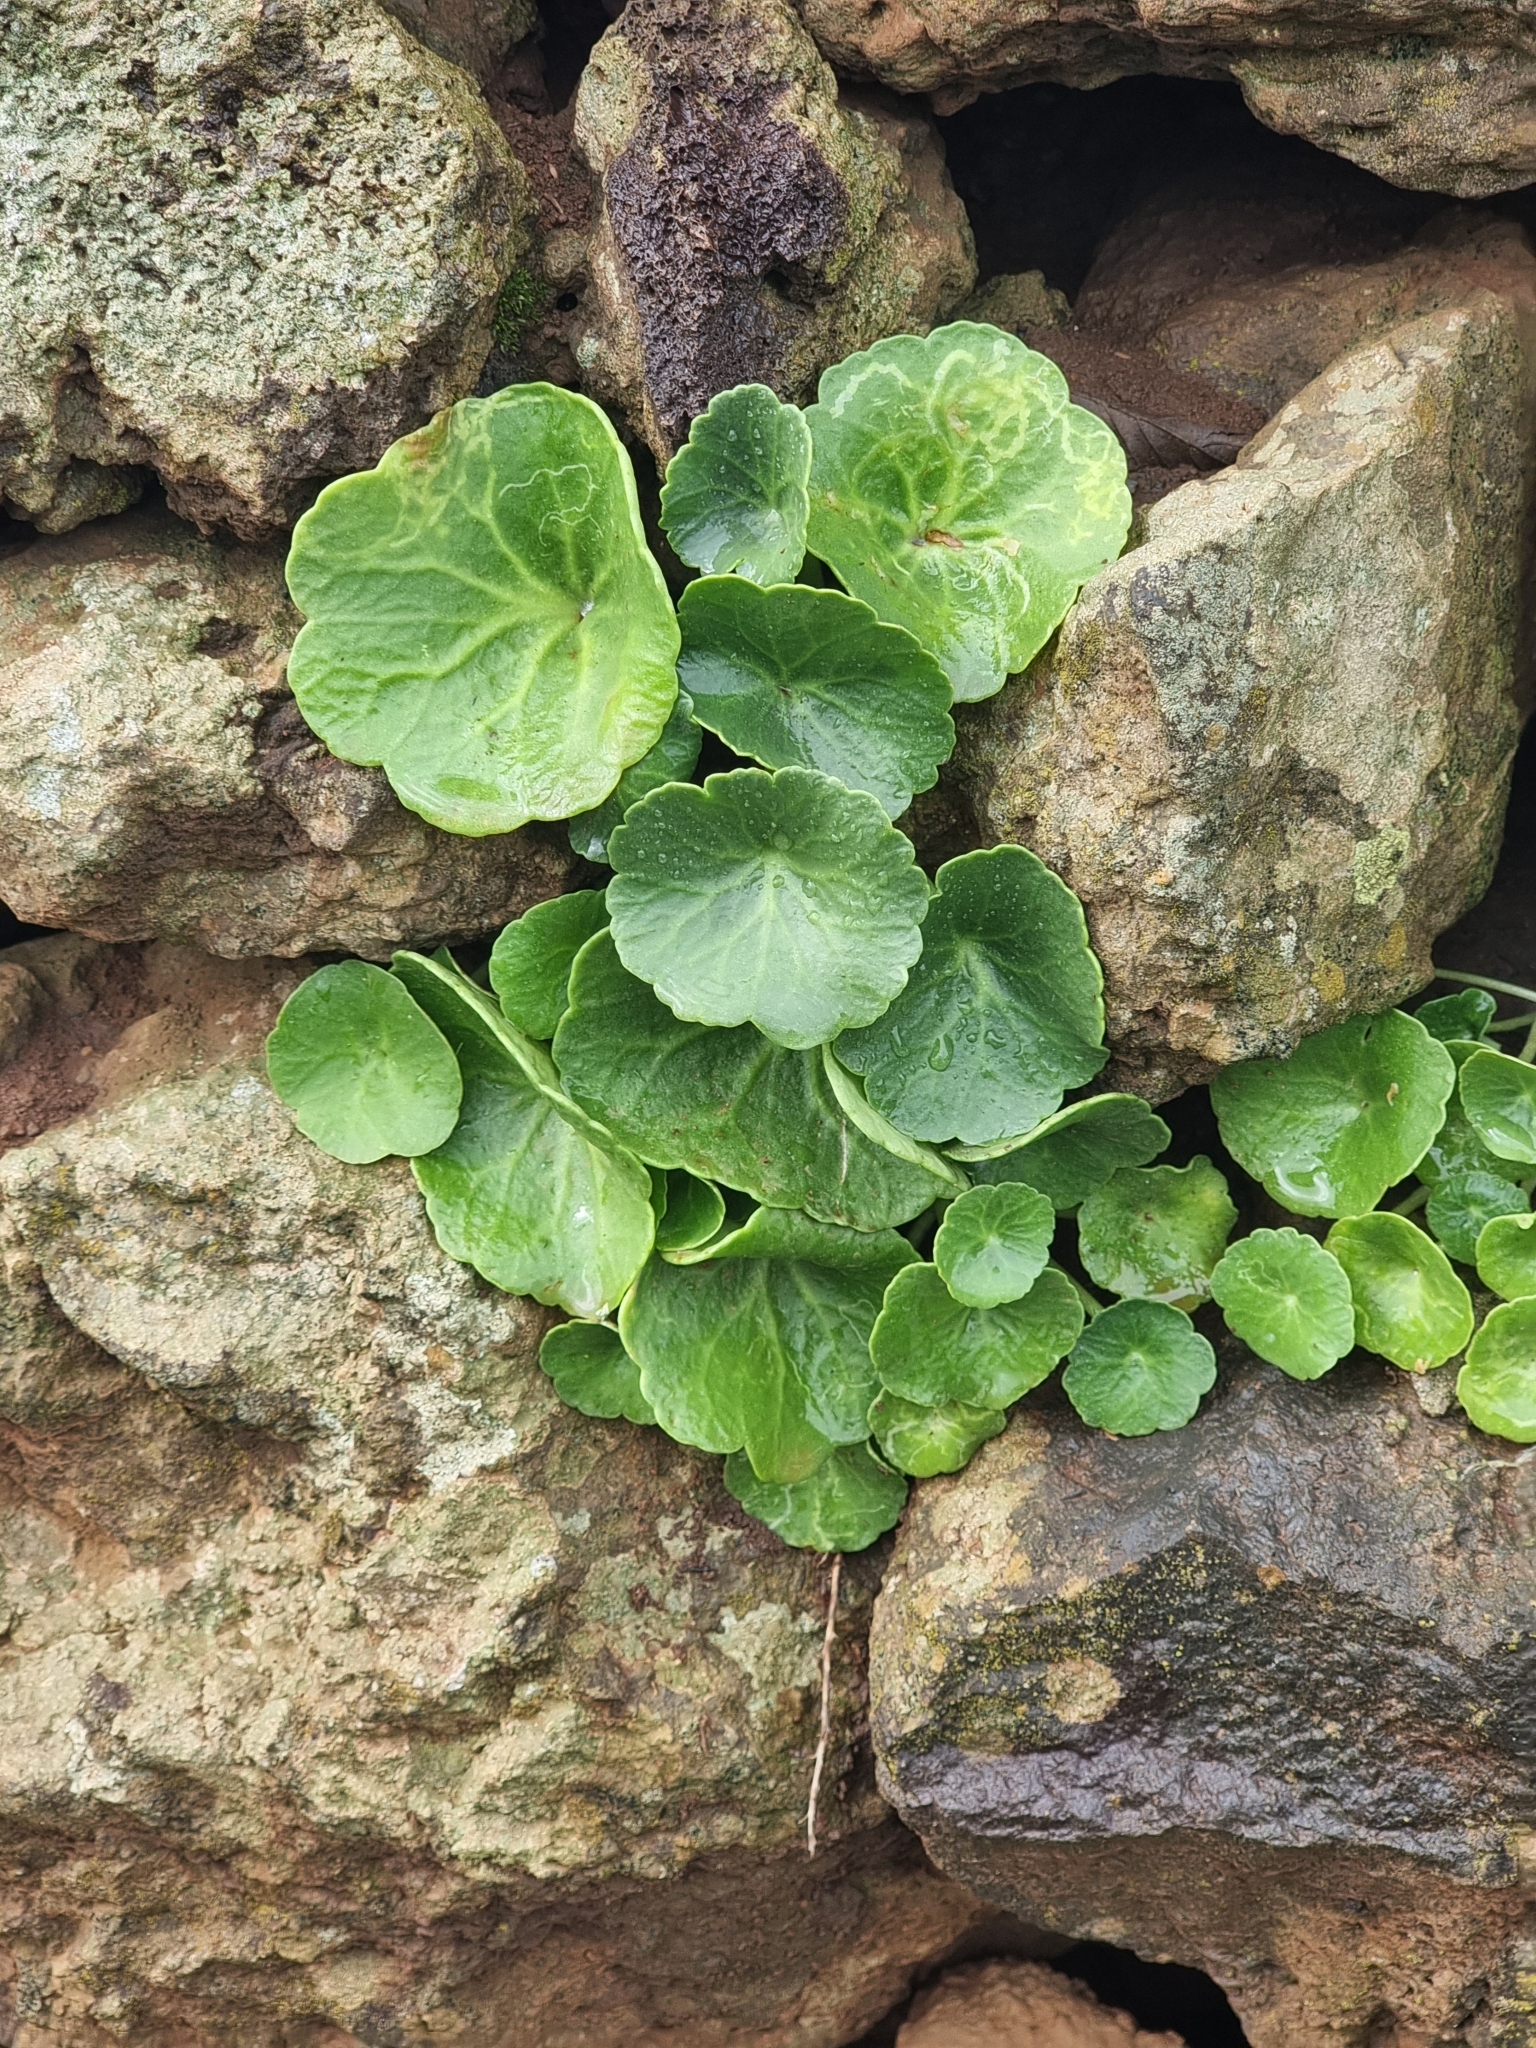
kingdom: Plantae
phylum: Tracheophyta
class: Magnoliopsida
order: Saxifragales
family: Crassulaceae
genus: Umbilicus
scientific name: Umbilicus rupestris
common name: Navelwort
